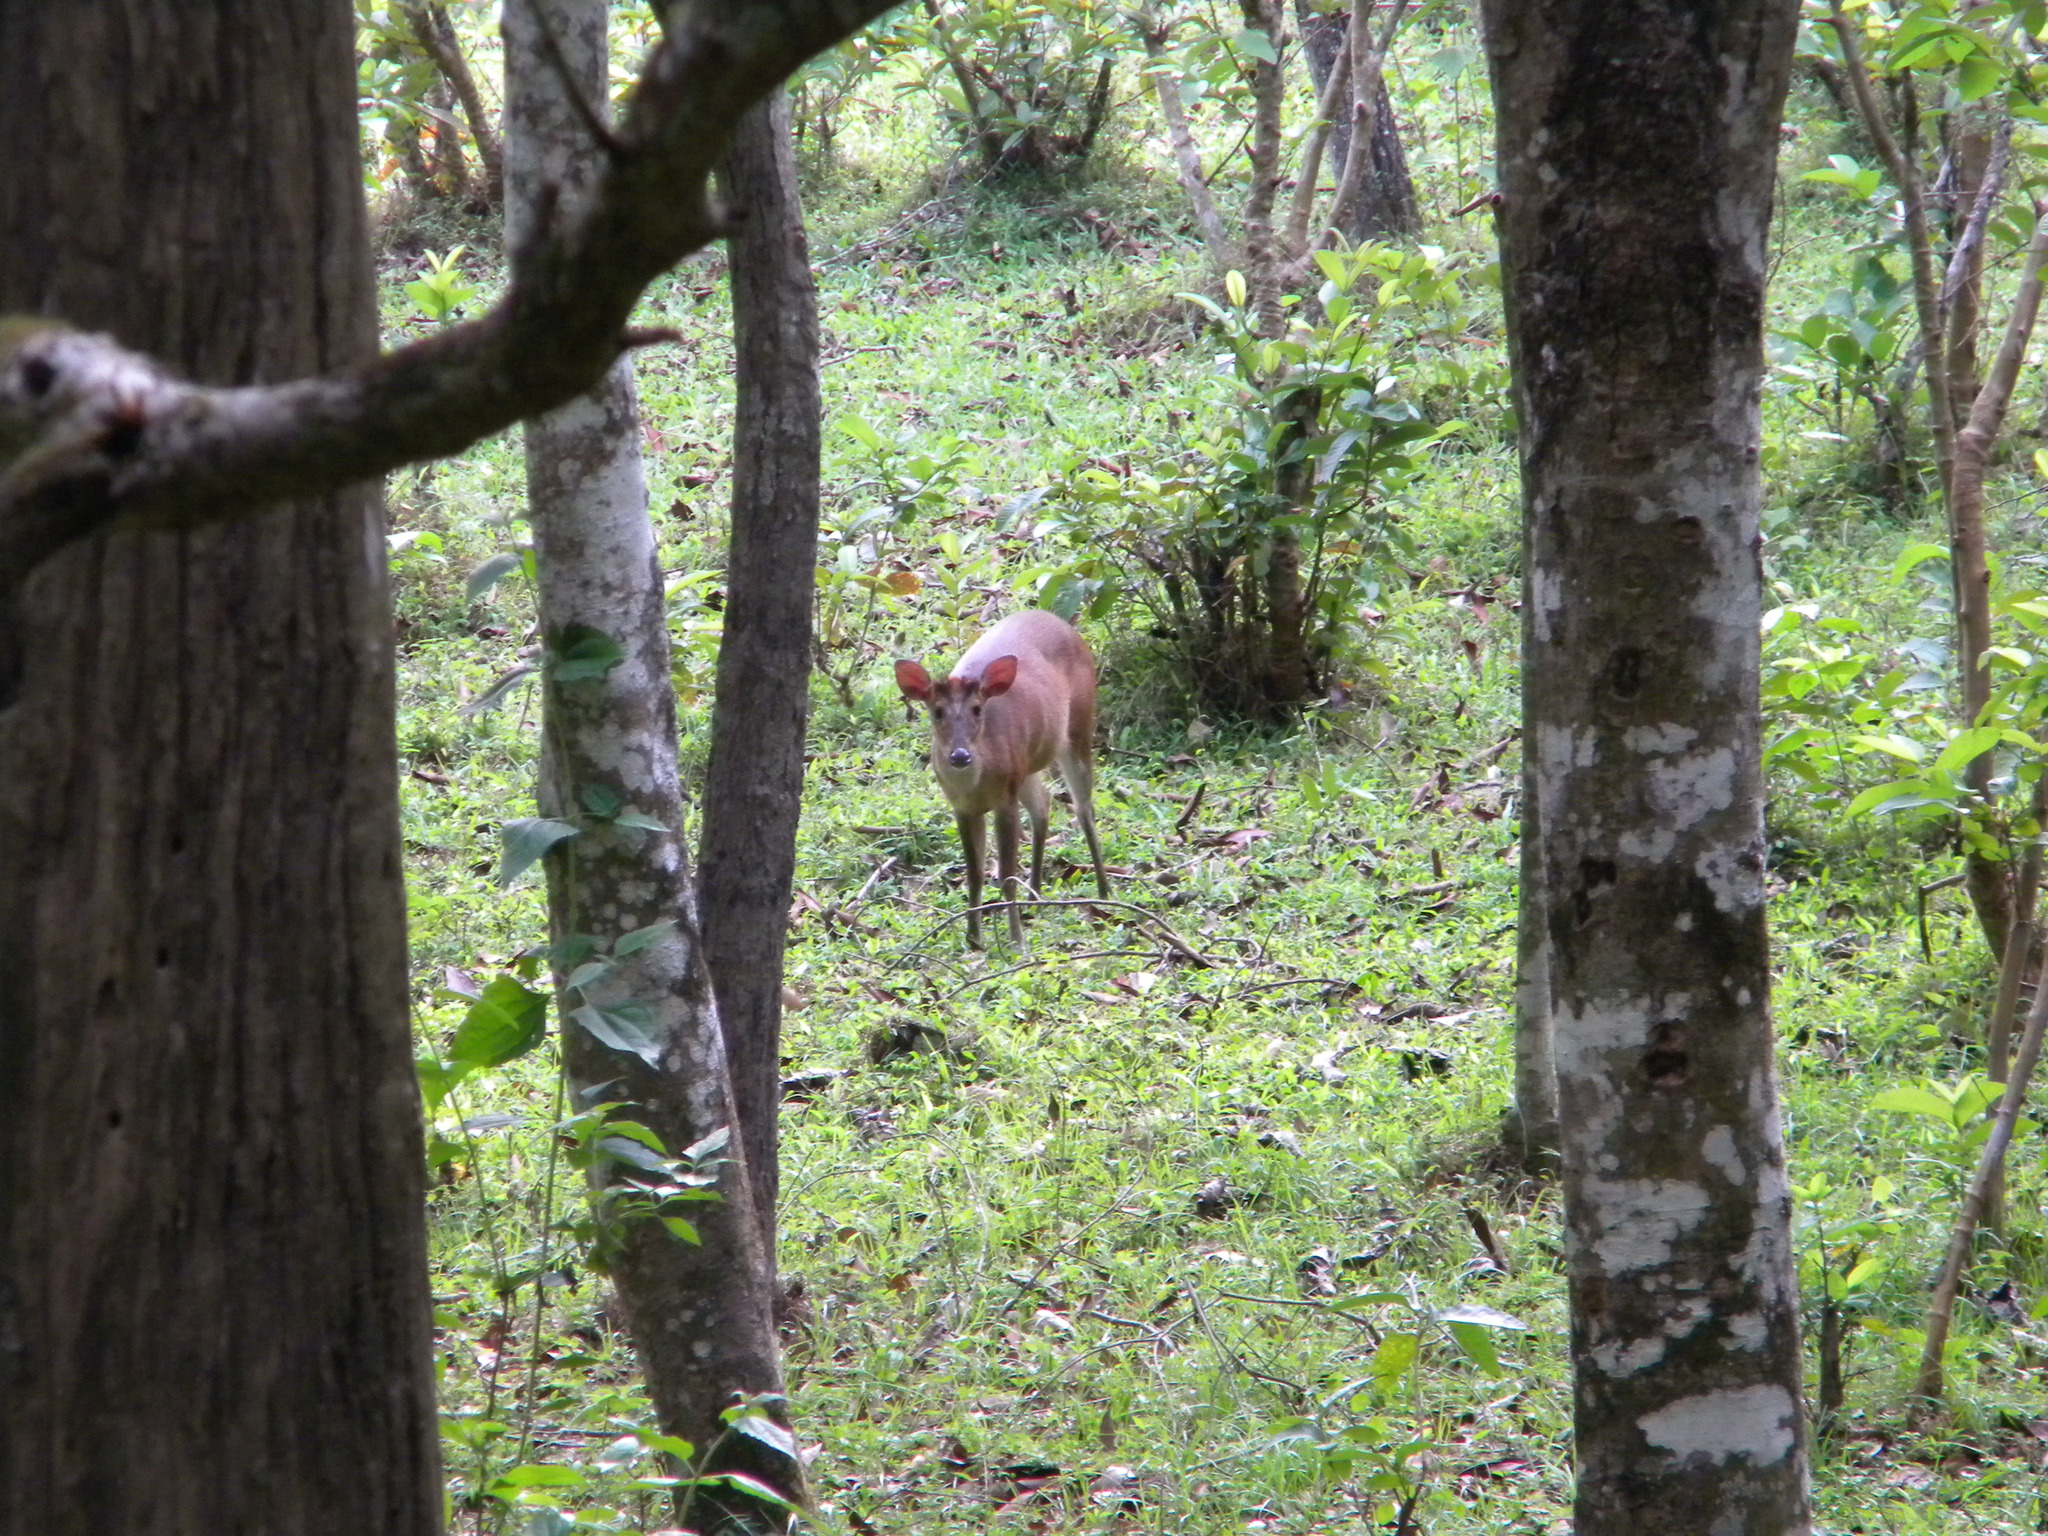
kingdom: Animalia
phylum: Chordata
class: Mammalia
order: Artiodactyla
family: Cervidae
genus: Muntiacus
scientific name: Muntiacus muntjak
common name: Indian muntjac
